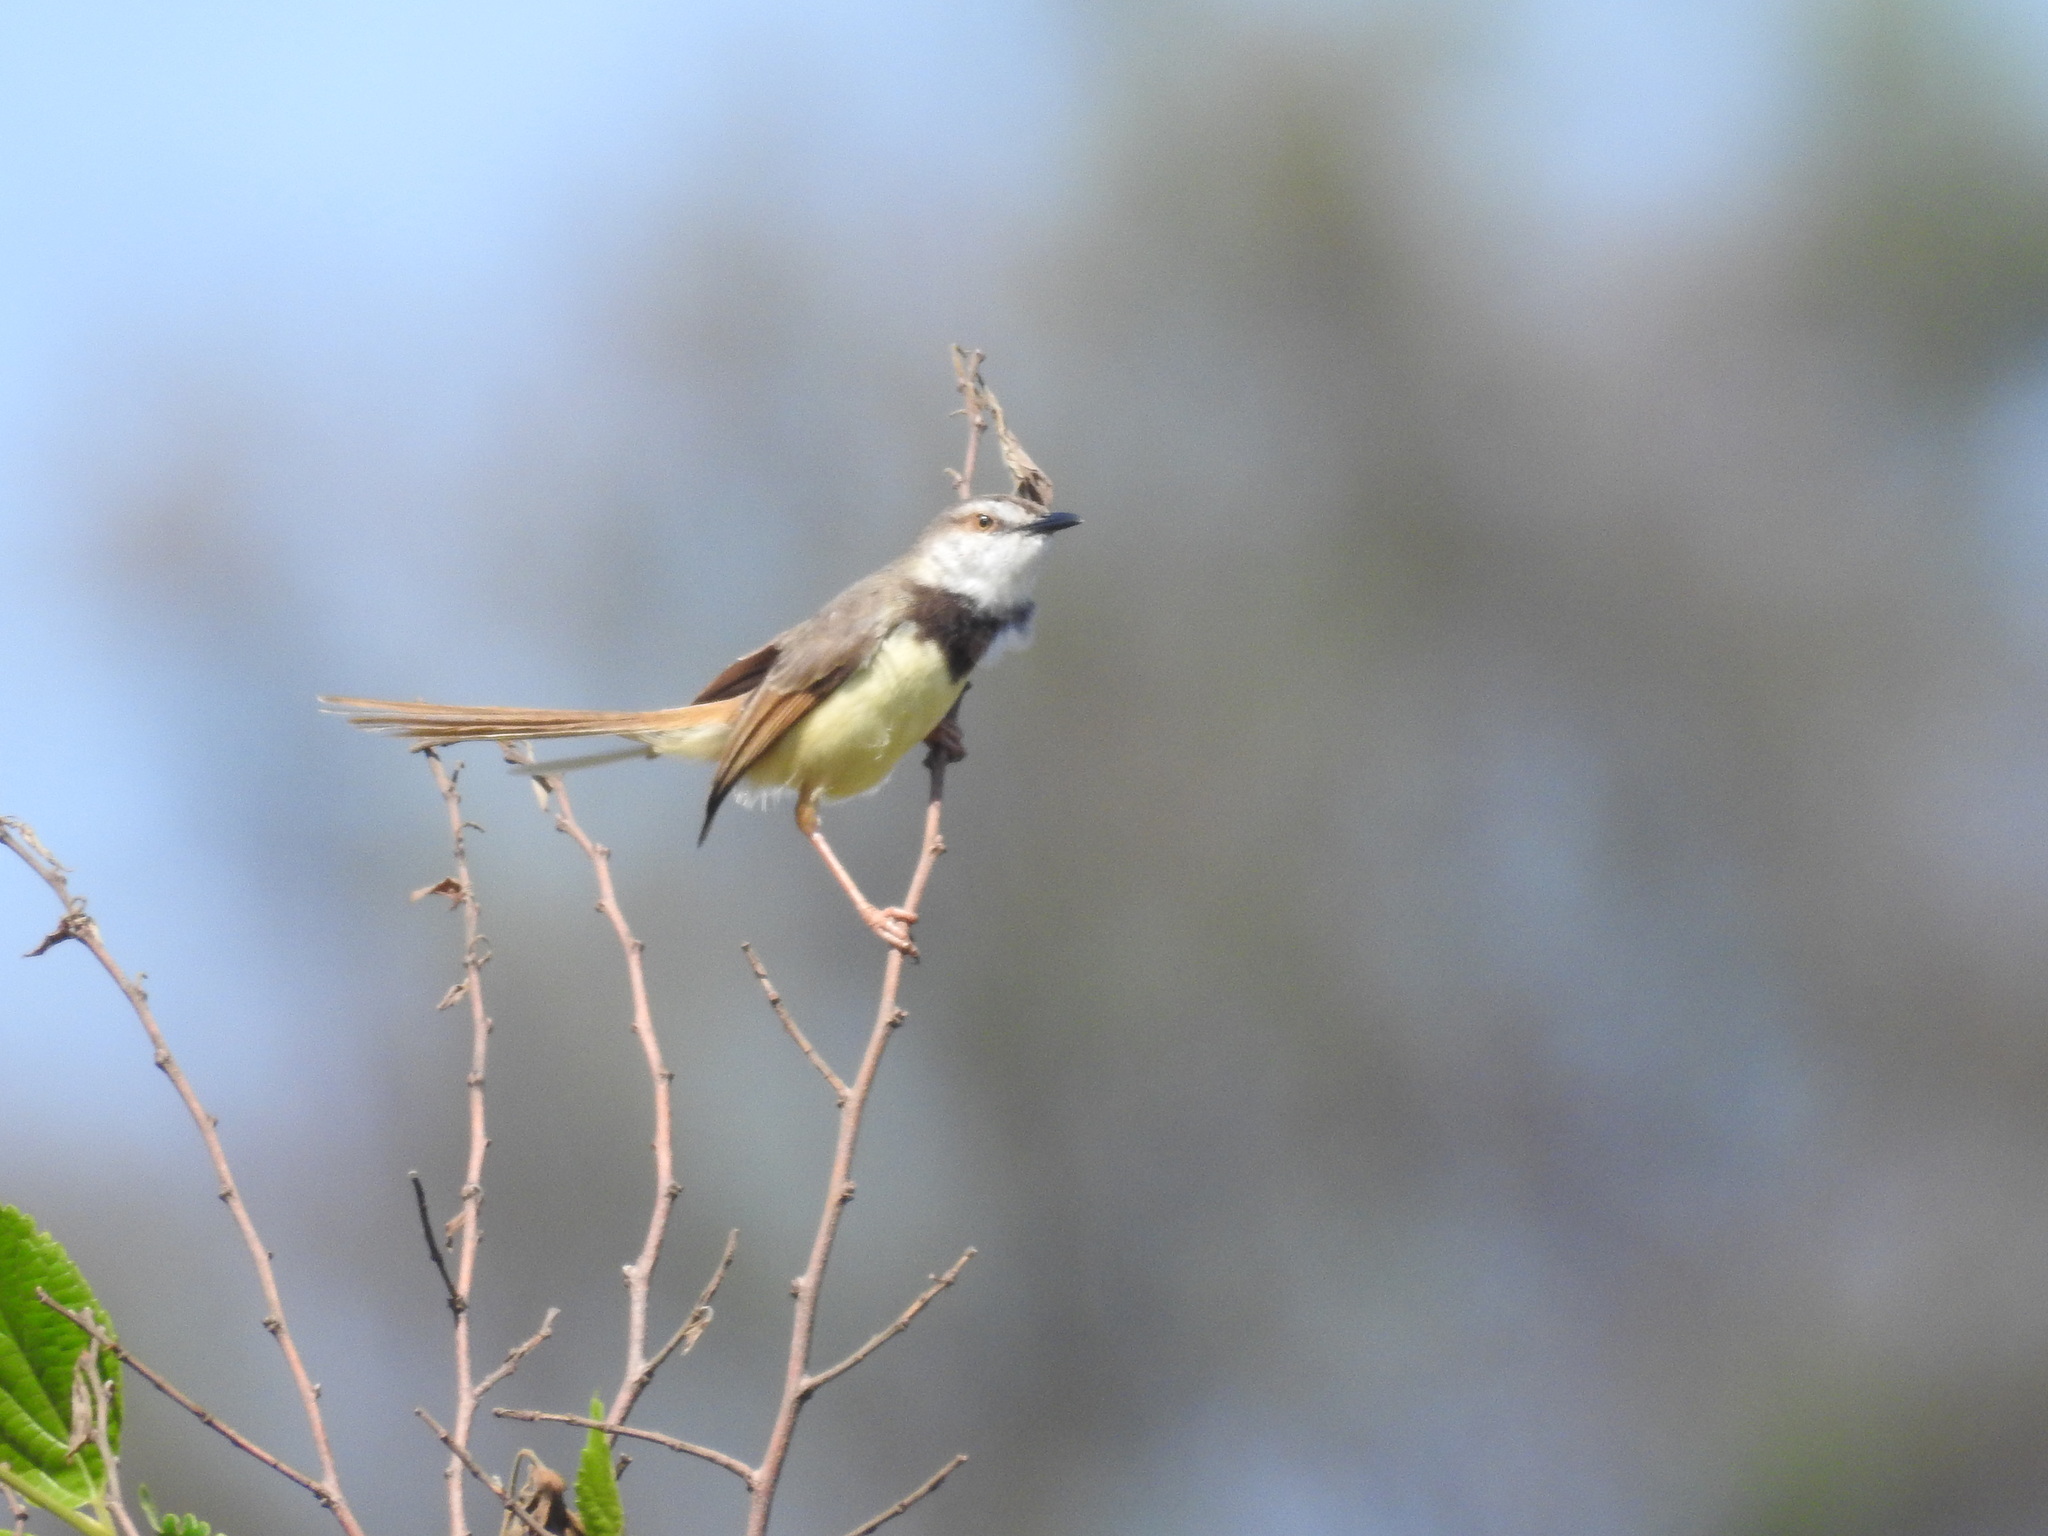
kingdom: Animalia
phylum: Chordata
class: Aves
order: Passeriformes
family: Cisticolidae
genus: Prinia
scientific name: Prinia flavicans
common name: Black-chested prinia
